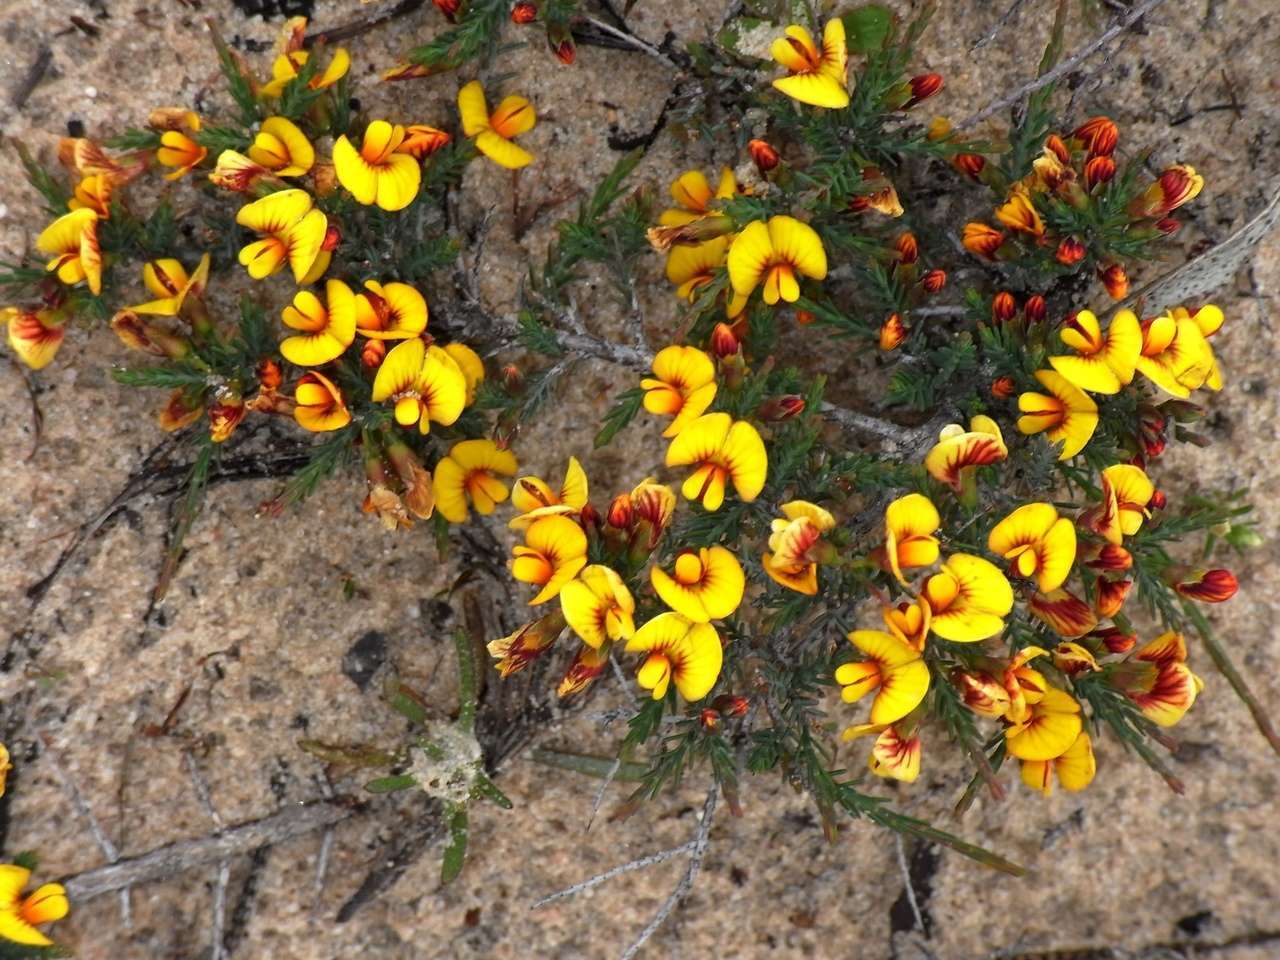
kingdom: Plantae
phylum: Tracheophyta
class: Magnoliopsida
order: Fabales
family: Fabaceae
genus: Eutaxia
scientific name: Eutaxia microphylla
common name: Mallee bush-pea
